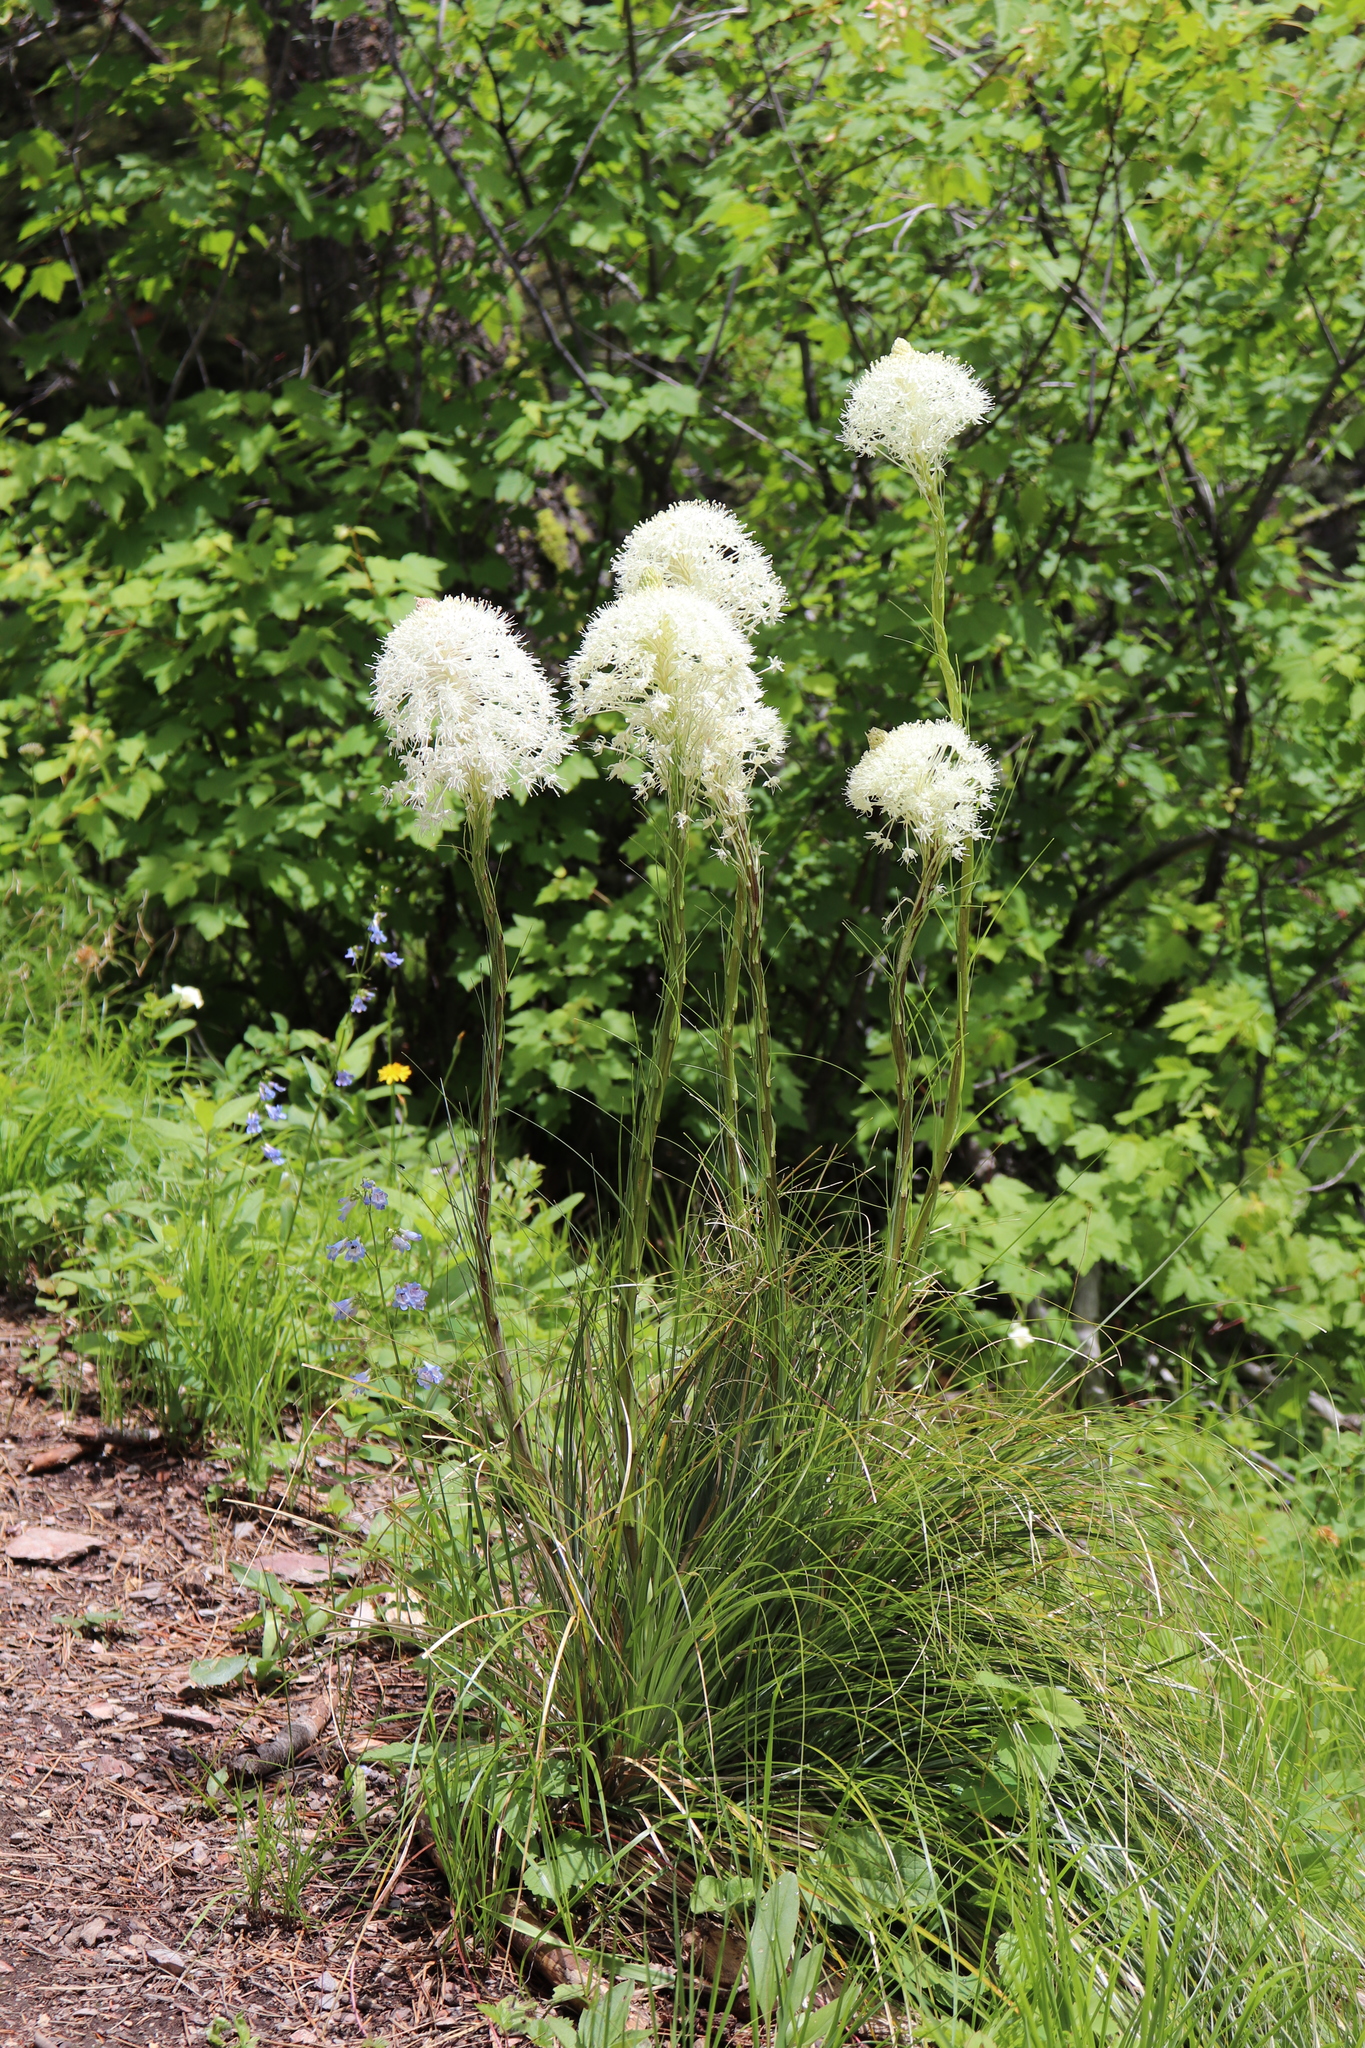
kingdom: Plantae
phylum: Tracheophyta
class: Liliopsida
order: Liliales
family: Melanthiaceae
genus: Xerophyllum
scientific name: Xerophyllum tenax
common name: Bear-grass
